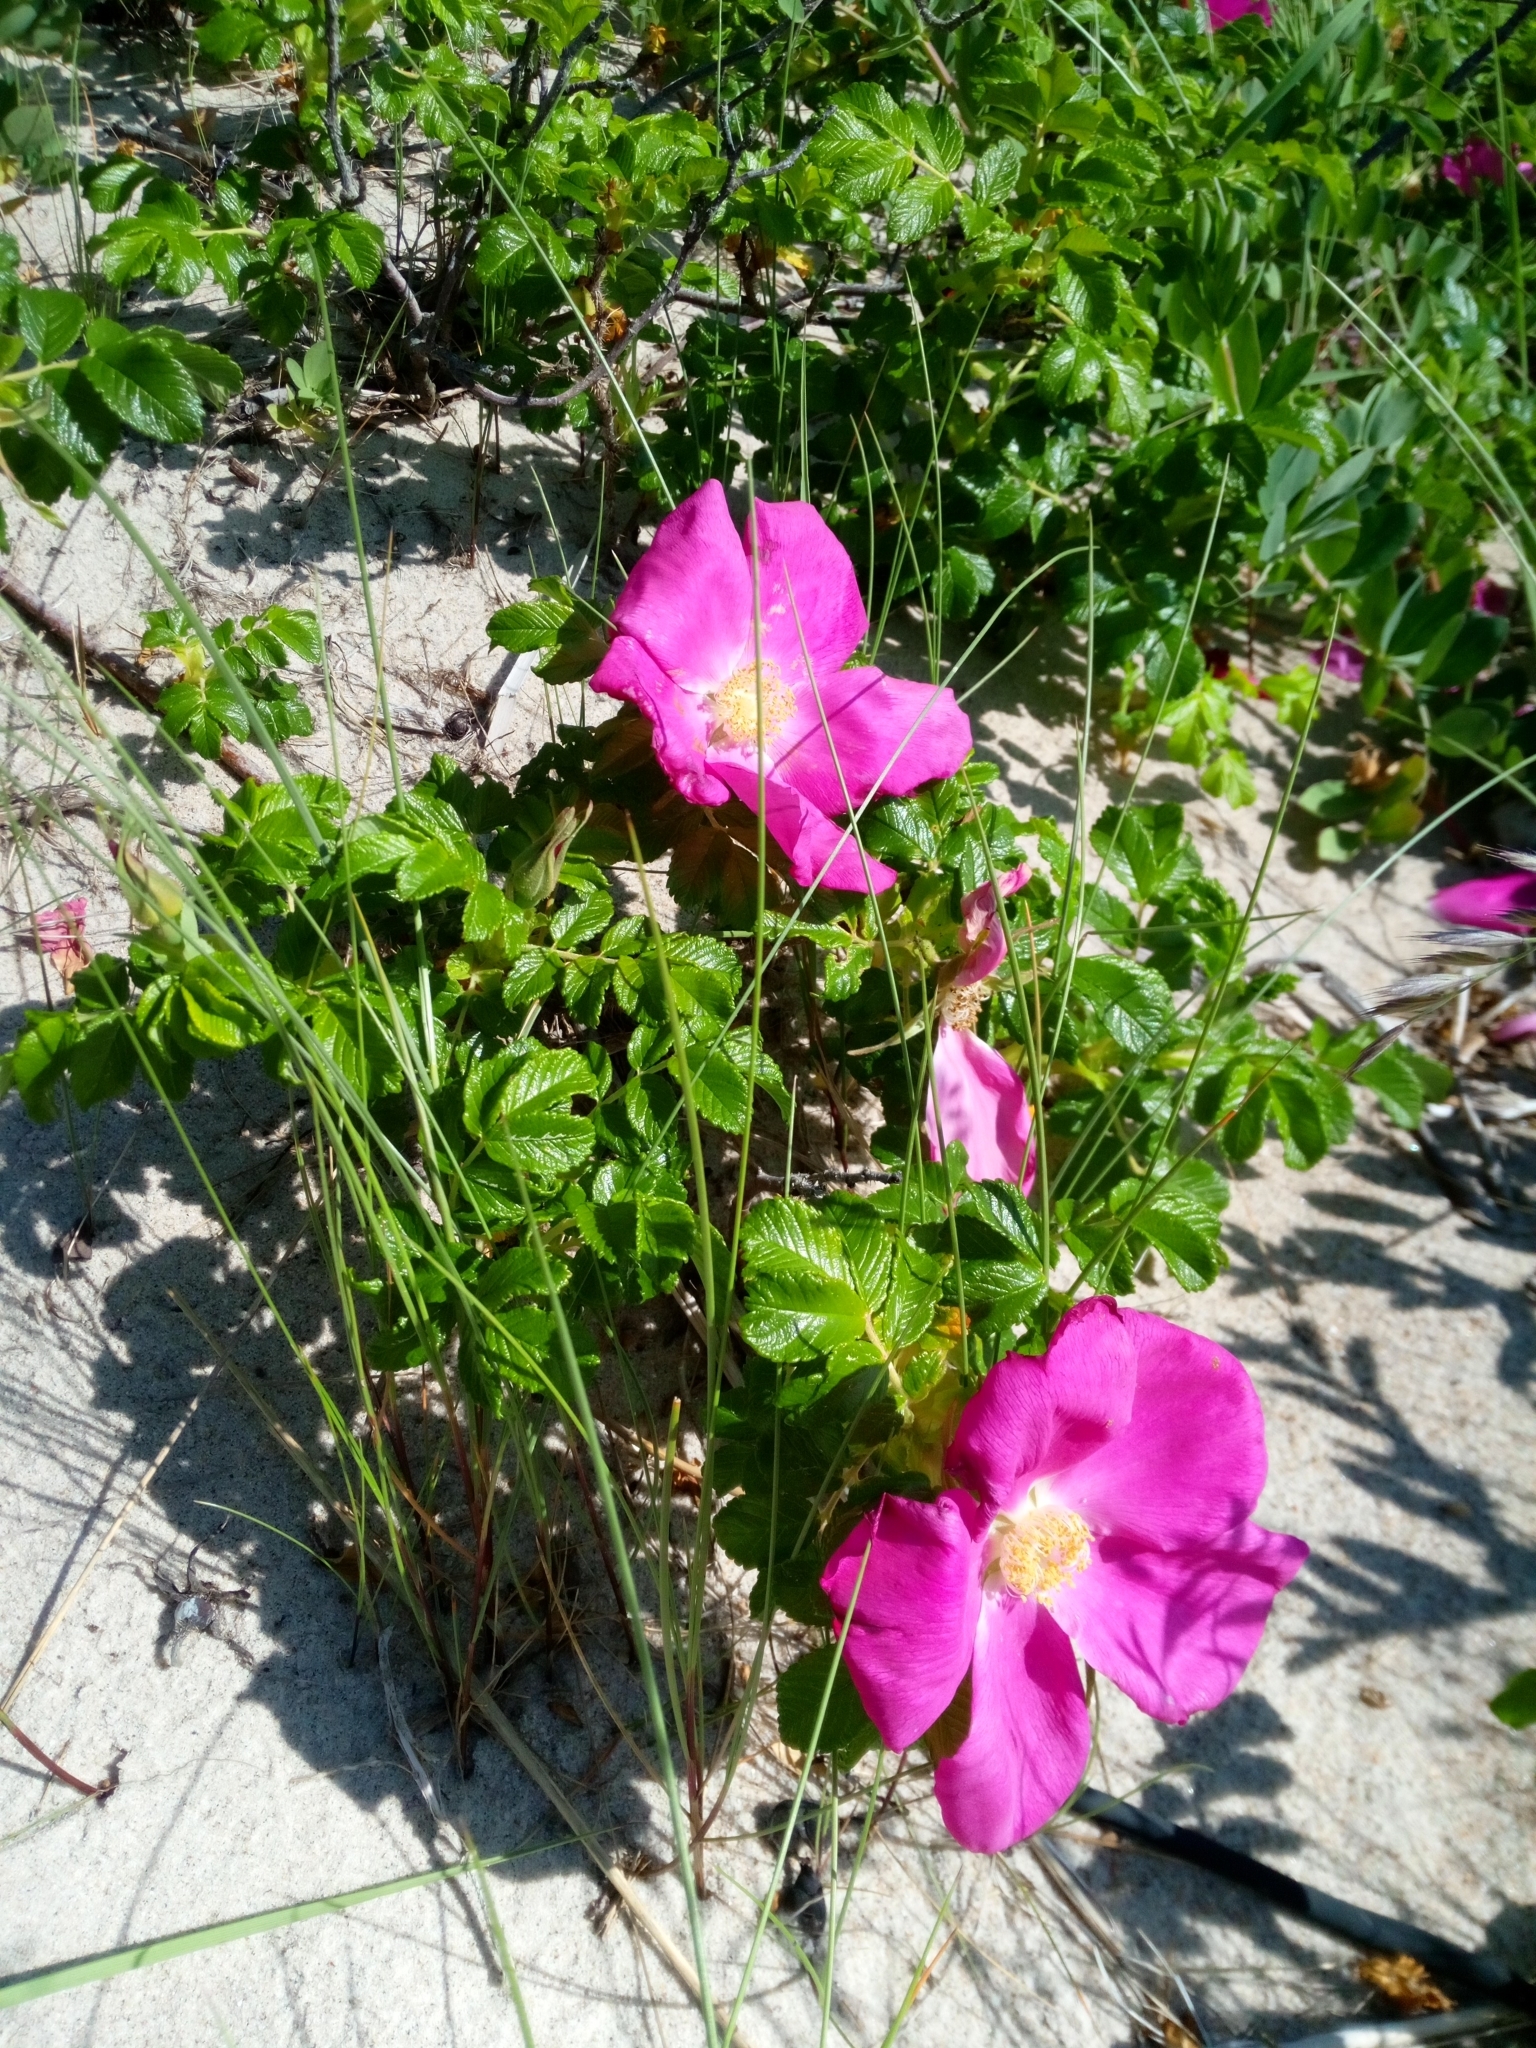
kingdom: Plantae
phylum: Tracheophyta
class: Magnoliopsida
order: Rosales
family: Rosaceae
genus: Rosa
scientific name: Rosa rugosa
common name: Japanese rose
